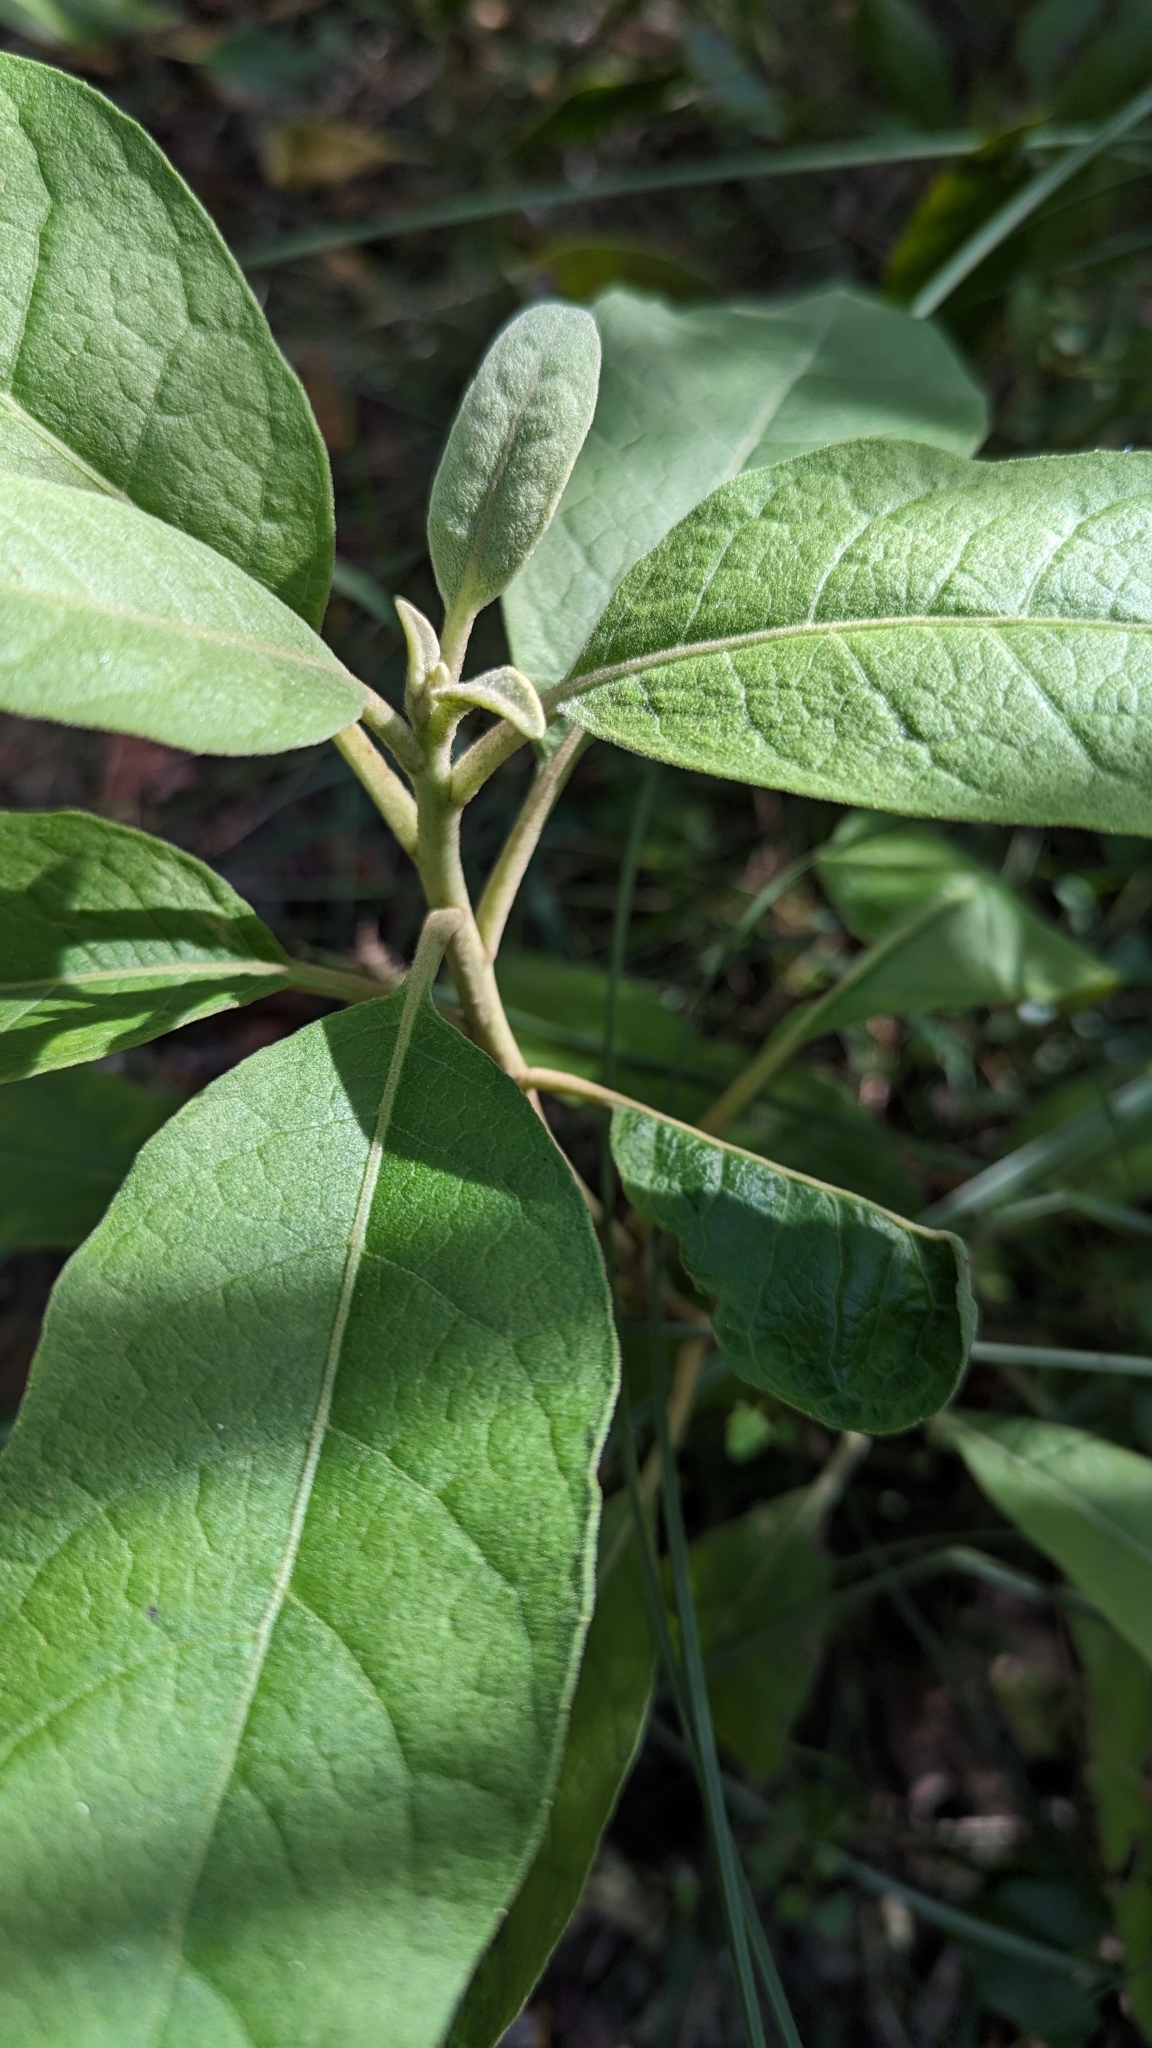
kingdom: Plantae
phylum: Tracheophyta
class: Magnoliopsida
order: Asterales
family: Asteraceae
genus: Pluchea
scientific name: Pluchea carolinensis
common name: Marsh fleabane
